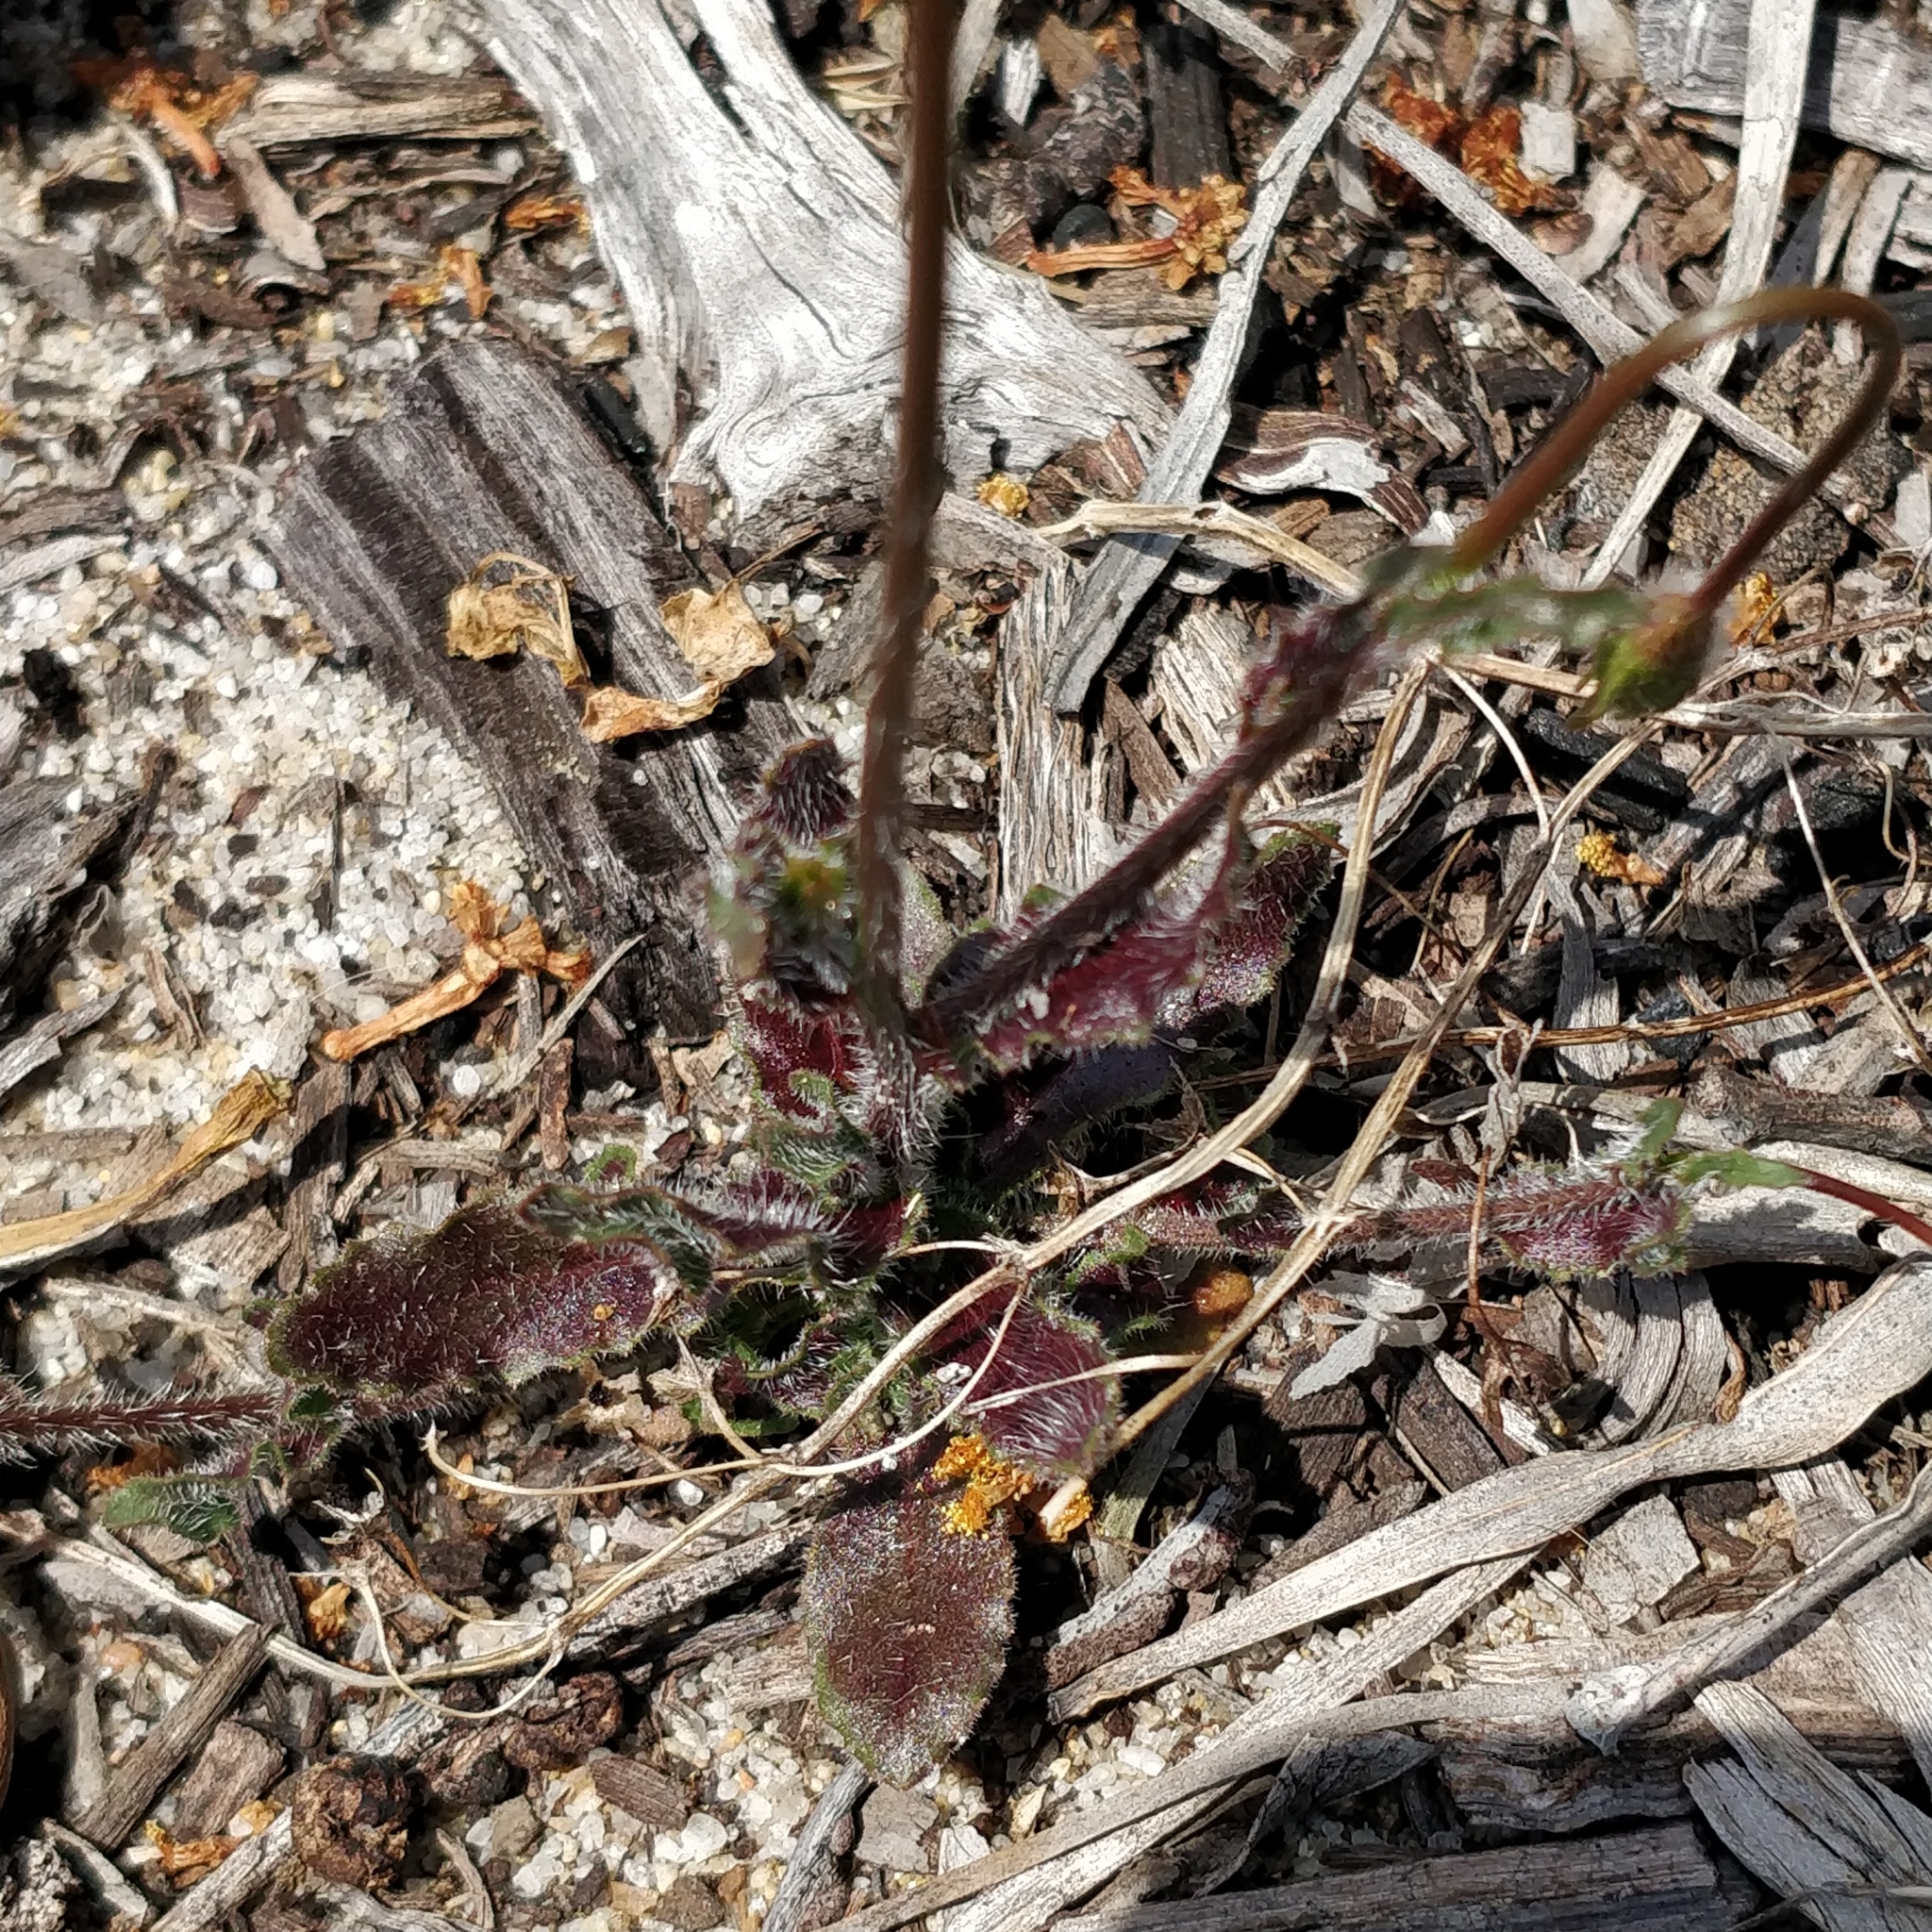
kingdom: Plantae
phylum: Tracheophyta
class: Magnoliopsida
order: Asterales
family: Campanulaceae
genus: Wahlenbergia
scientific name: Wahlenbergia capensis
